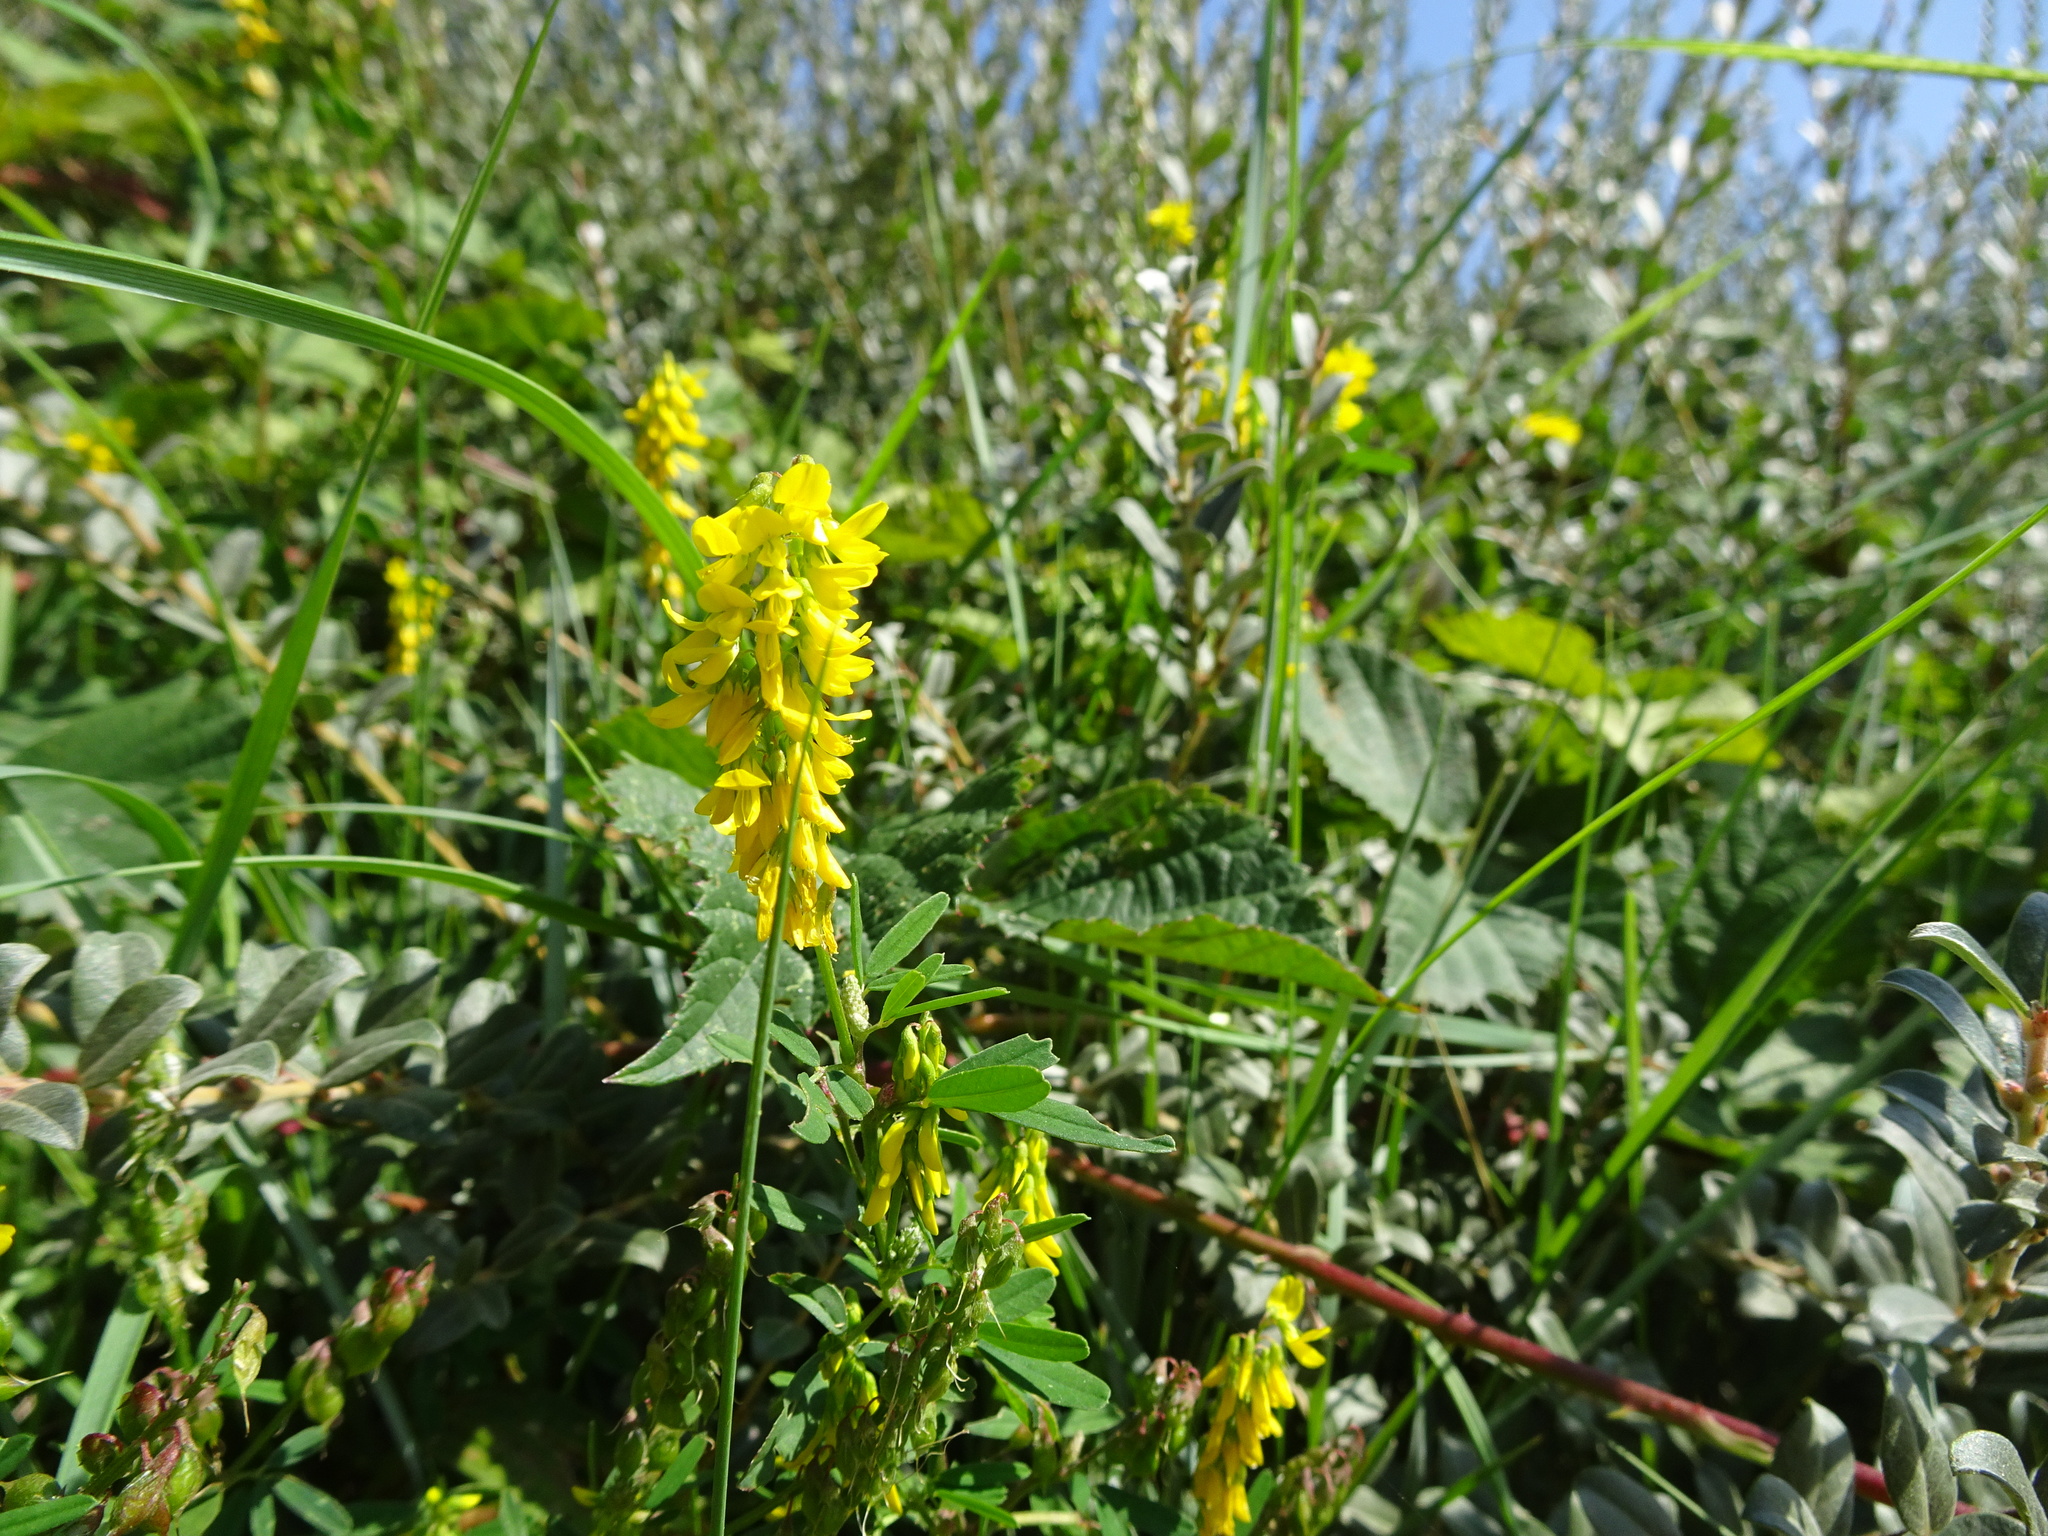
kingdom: Plantae
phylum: Tracheophyta
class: Magnoliopsida
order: Fabales
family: Fabaceae
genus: Melilotus
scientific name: Melilotus altissimus
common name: Tall melilot
